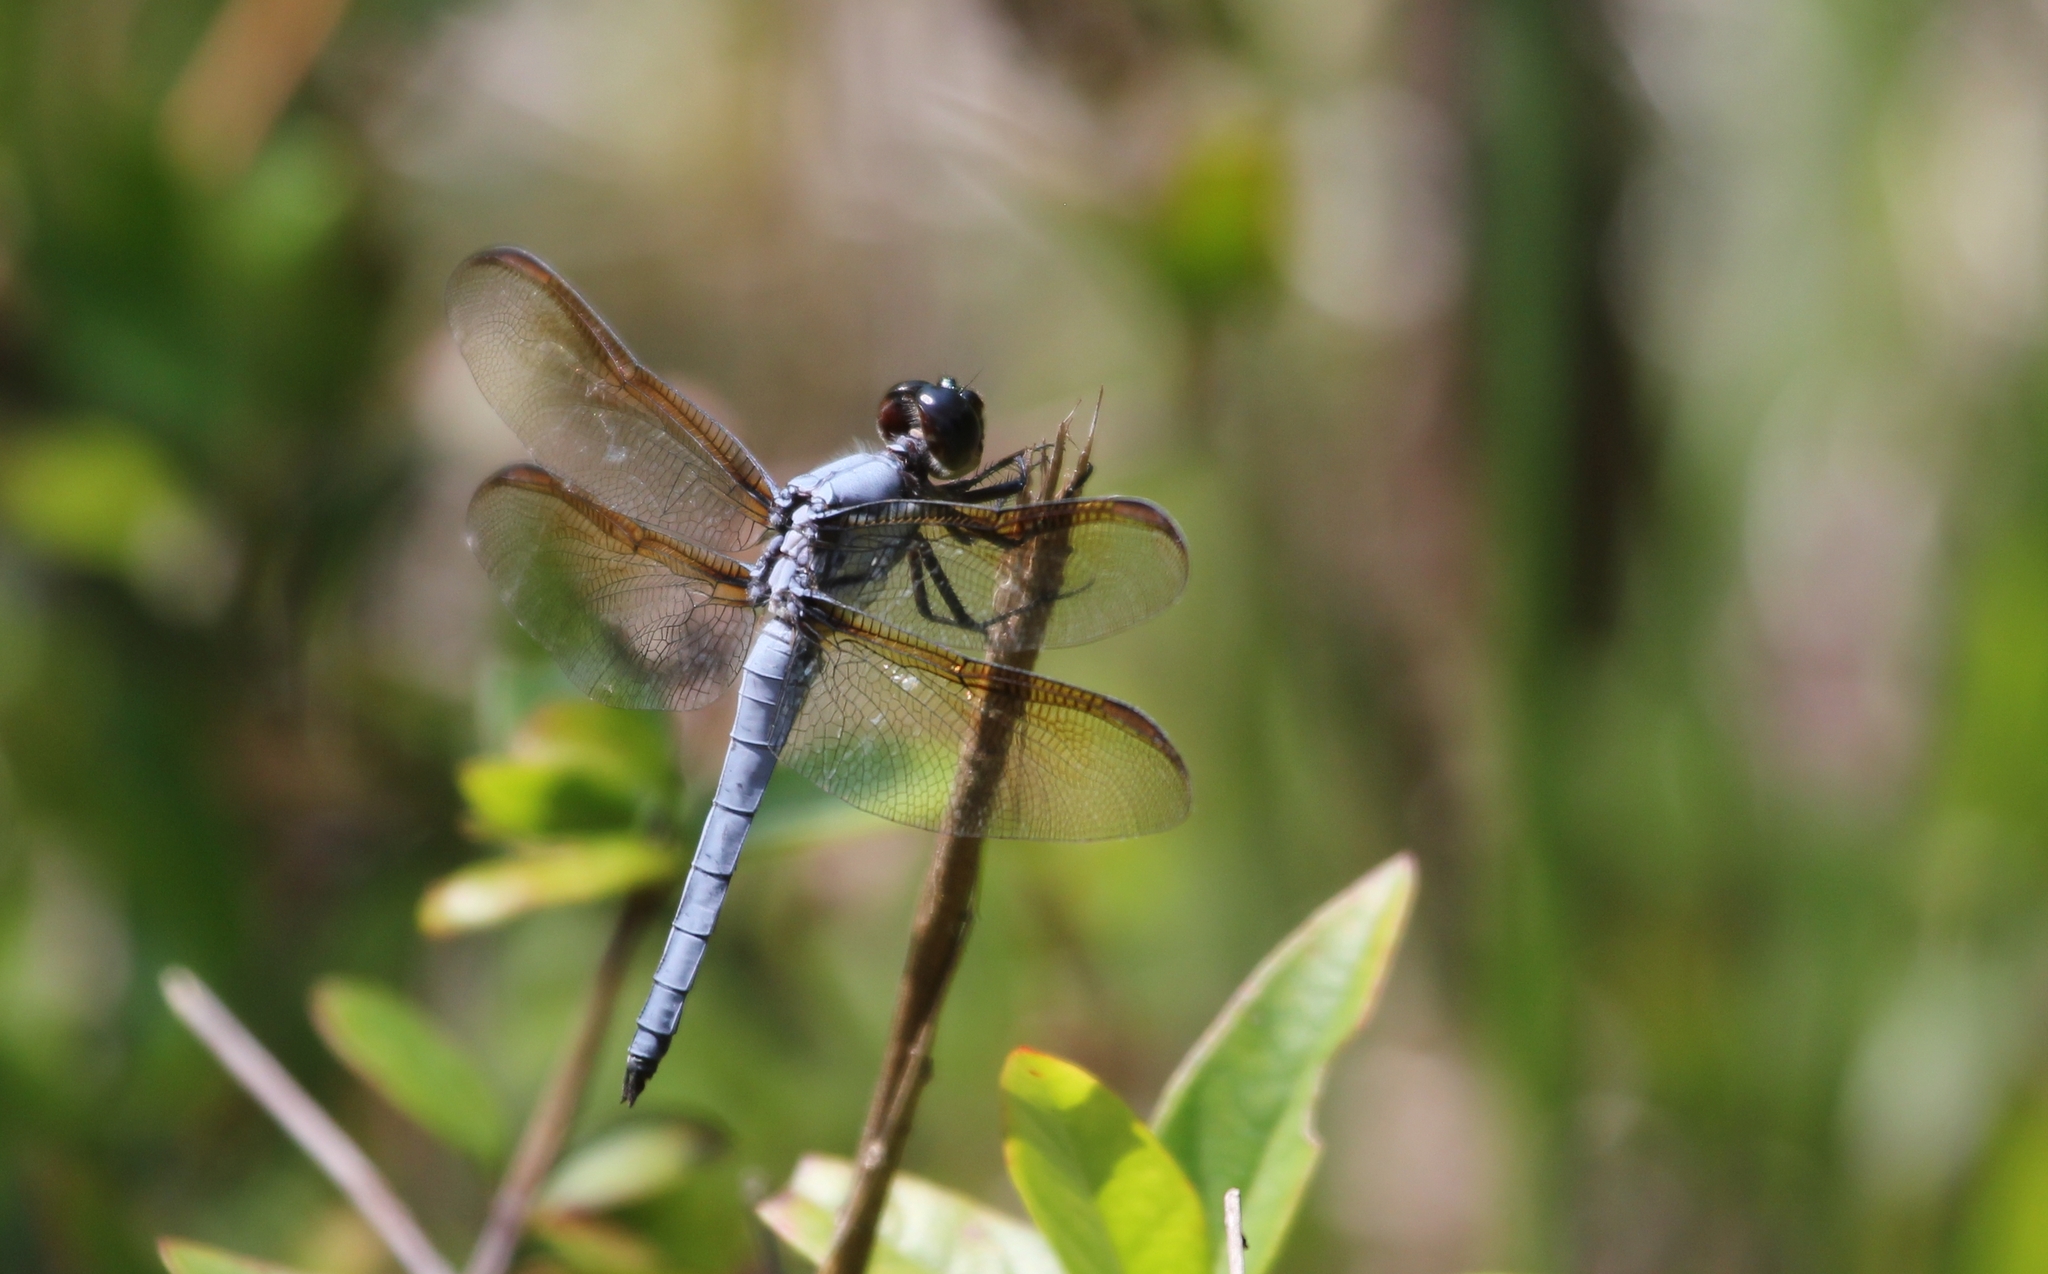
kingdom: Animalia
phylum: Arthropoda
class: Insecta
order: Odonata
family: Libellulidae
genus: Libellula
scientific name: Libellula flavida
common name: Yellow-sided skimmer
